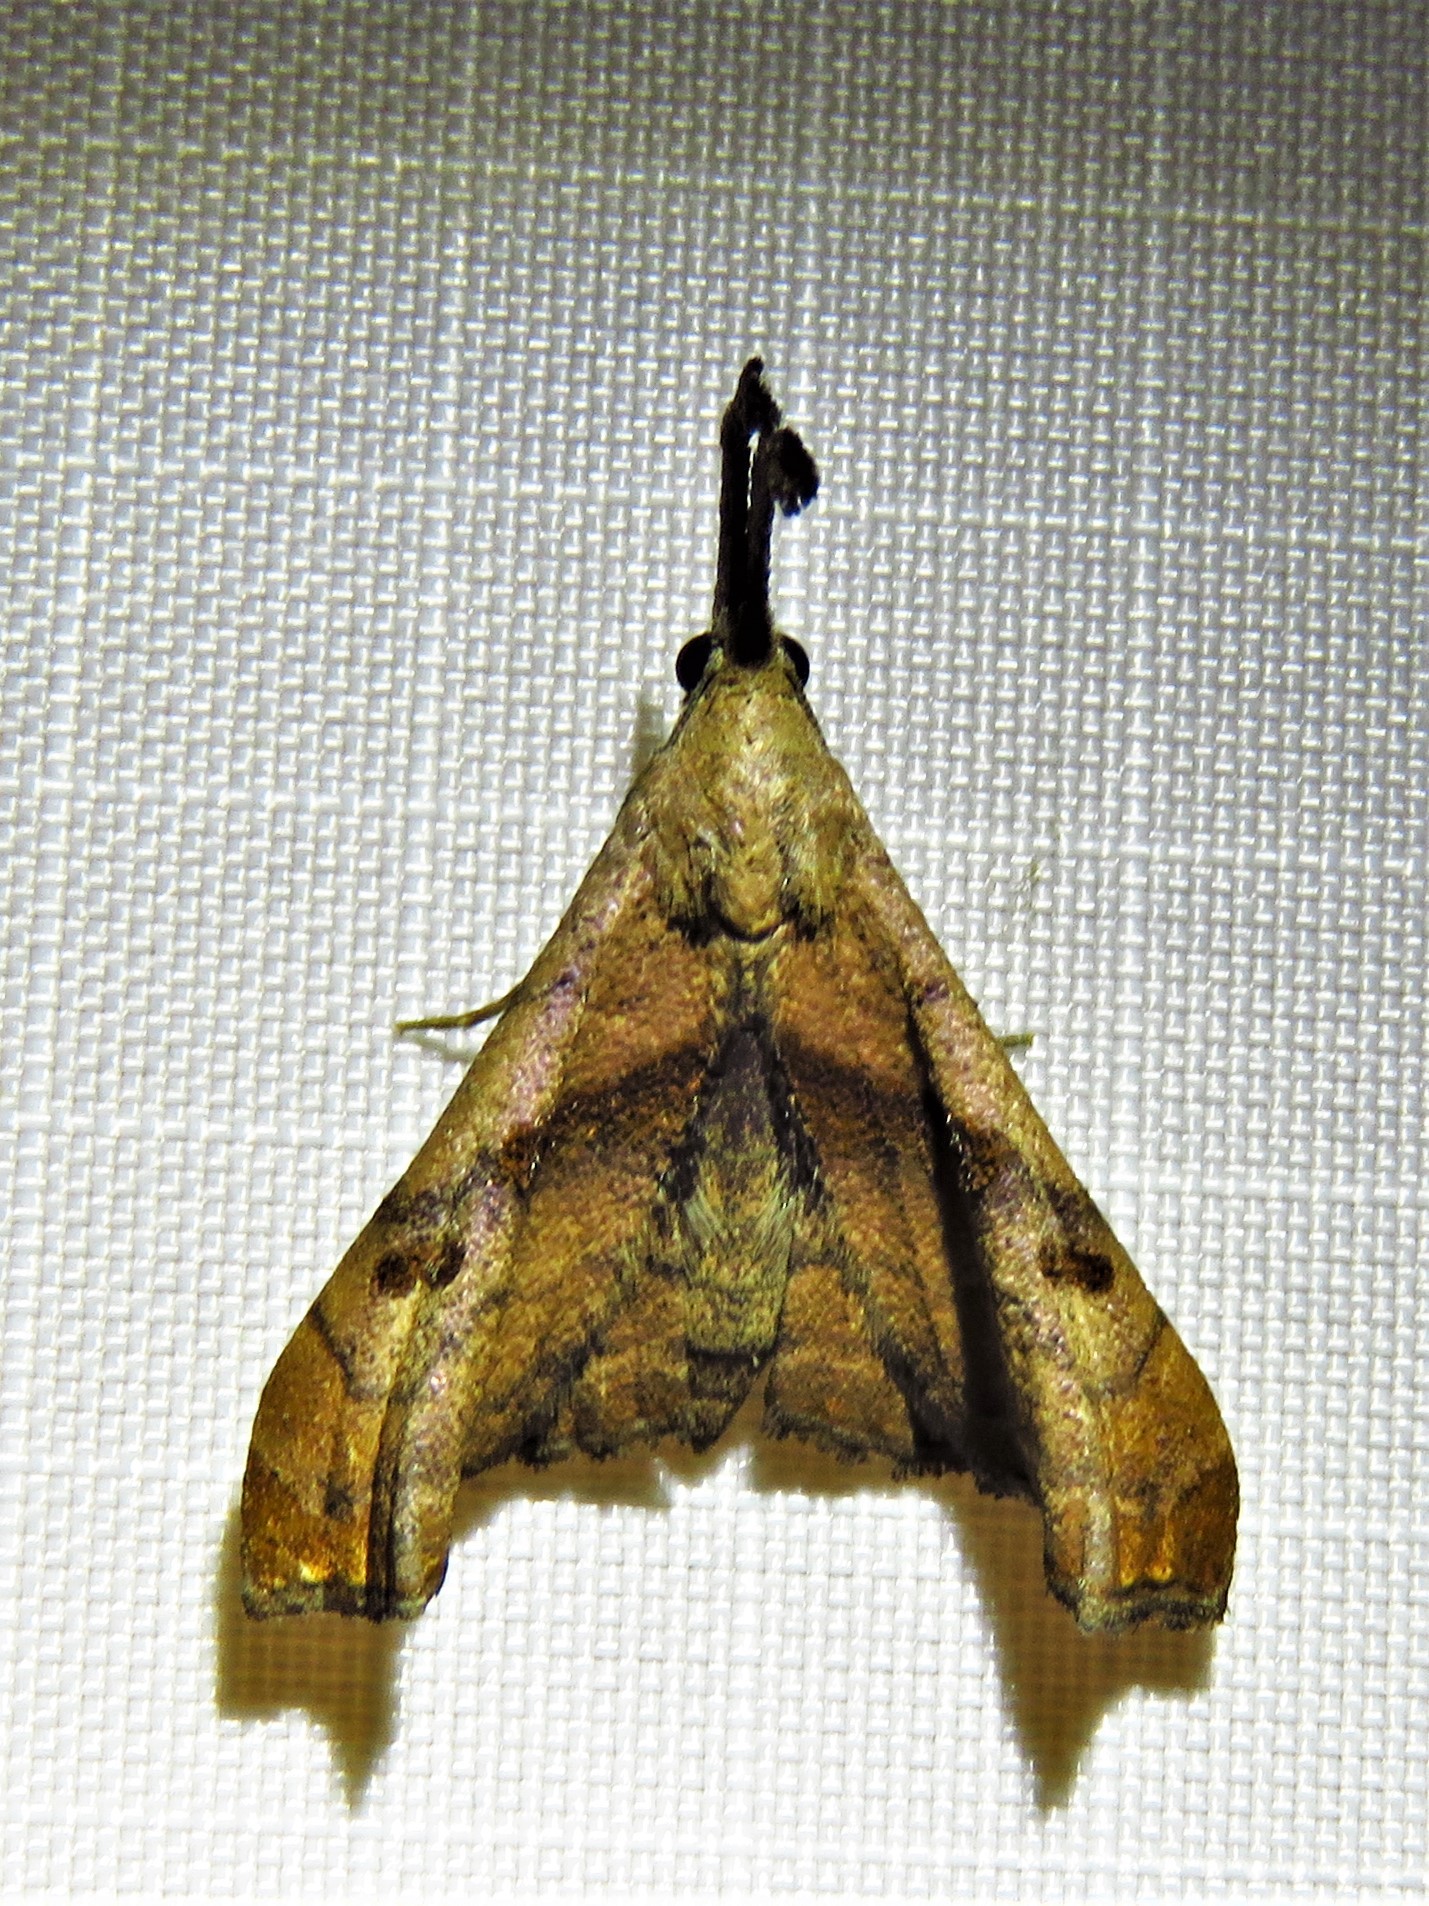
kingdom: Animalia
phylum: Arthropoda
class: Insecta
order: Lepidoptera
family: Erebidae
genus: Palthis
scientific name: Palthis angulalis
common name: Dark-spotted palthis moth
